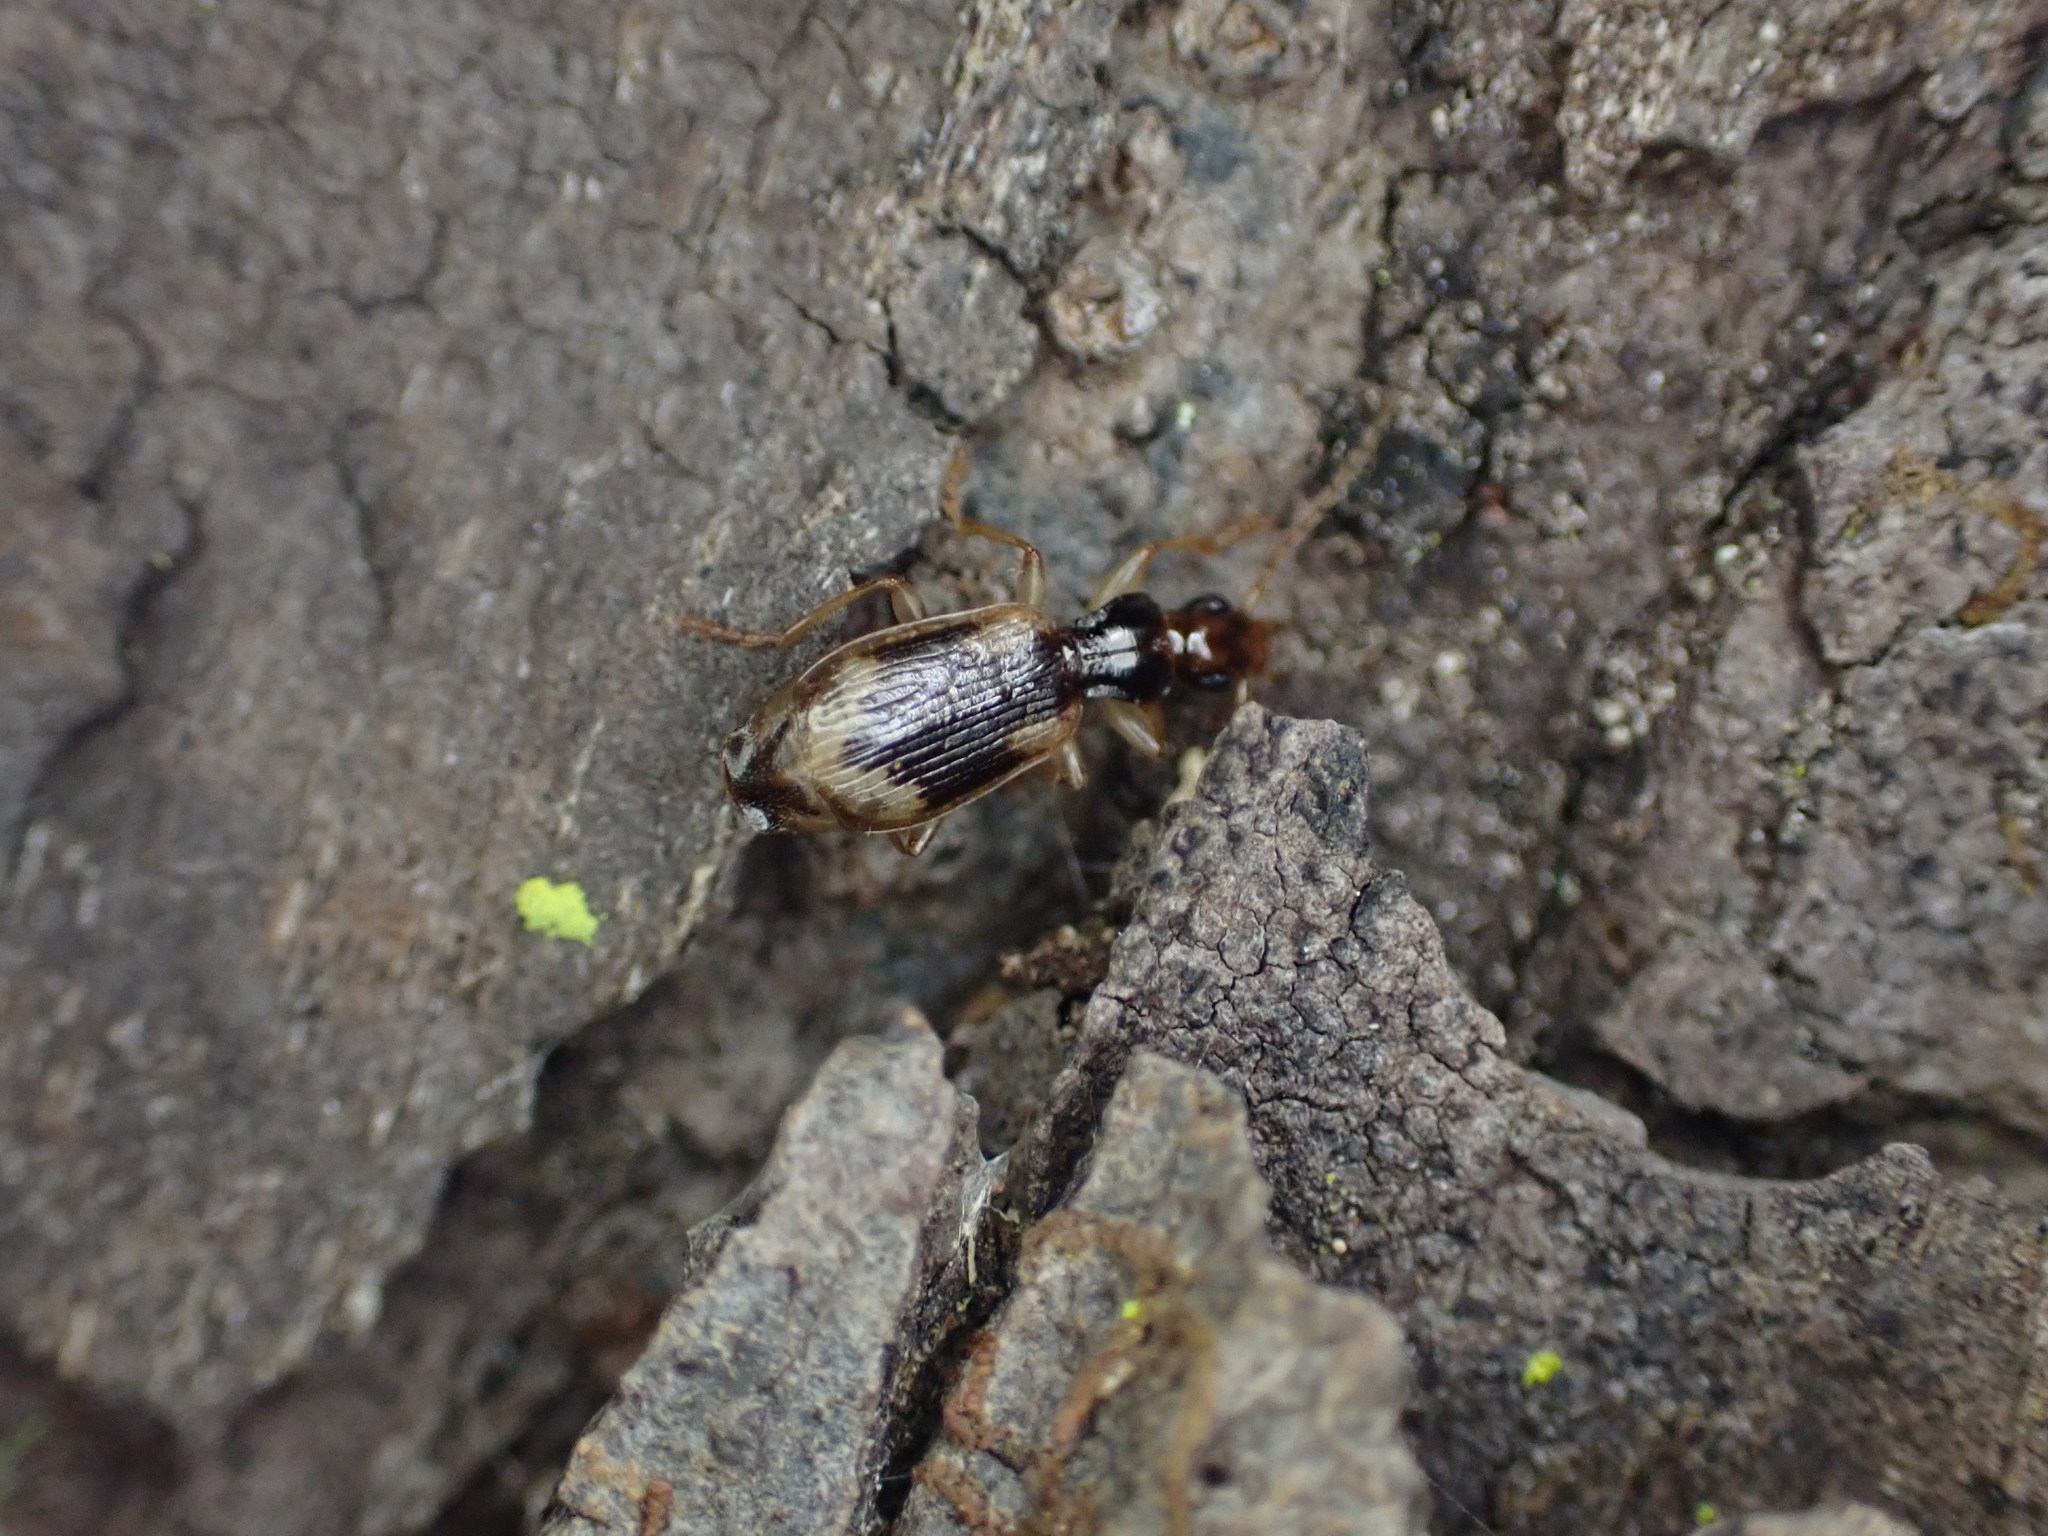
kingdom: Animalia
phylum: Arthropoda
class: Insecta
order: Coleoptera
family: Carabidae
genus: Demetrida
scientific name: Demetrida nasuta
